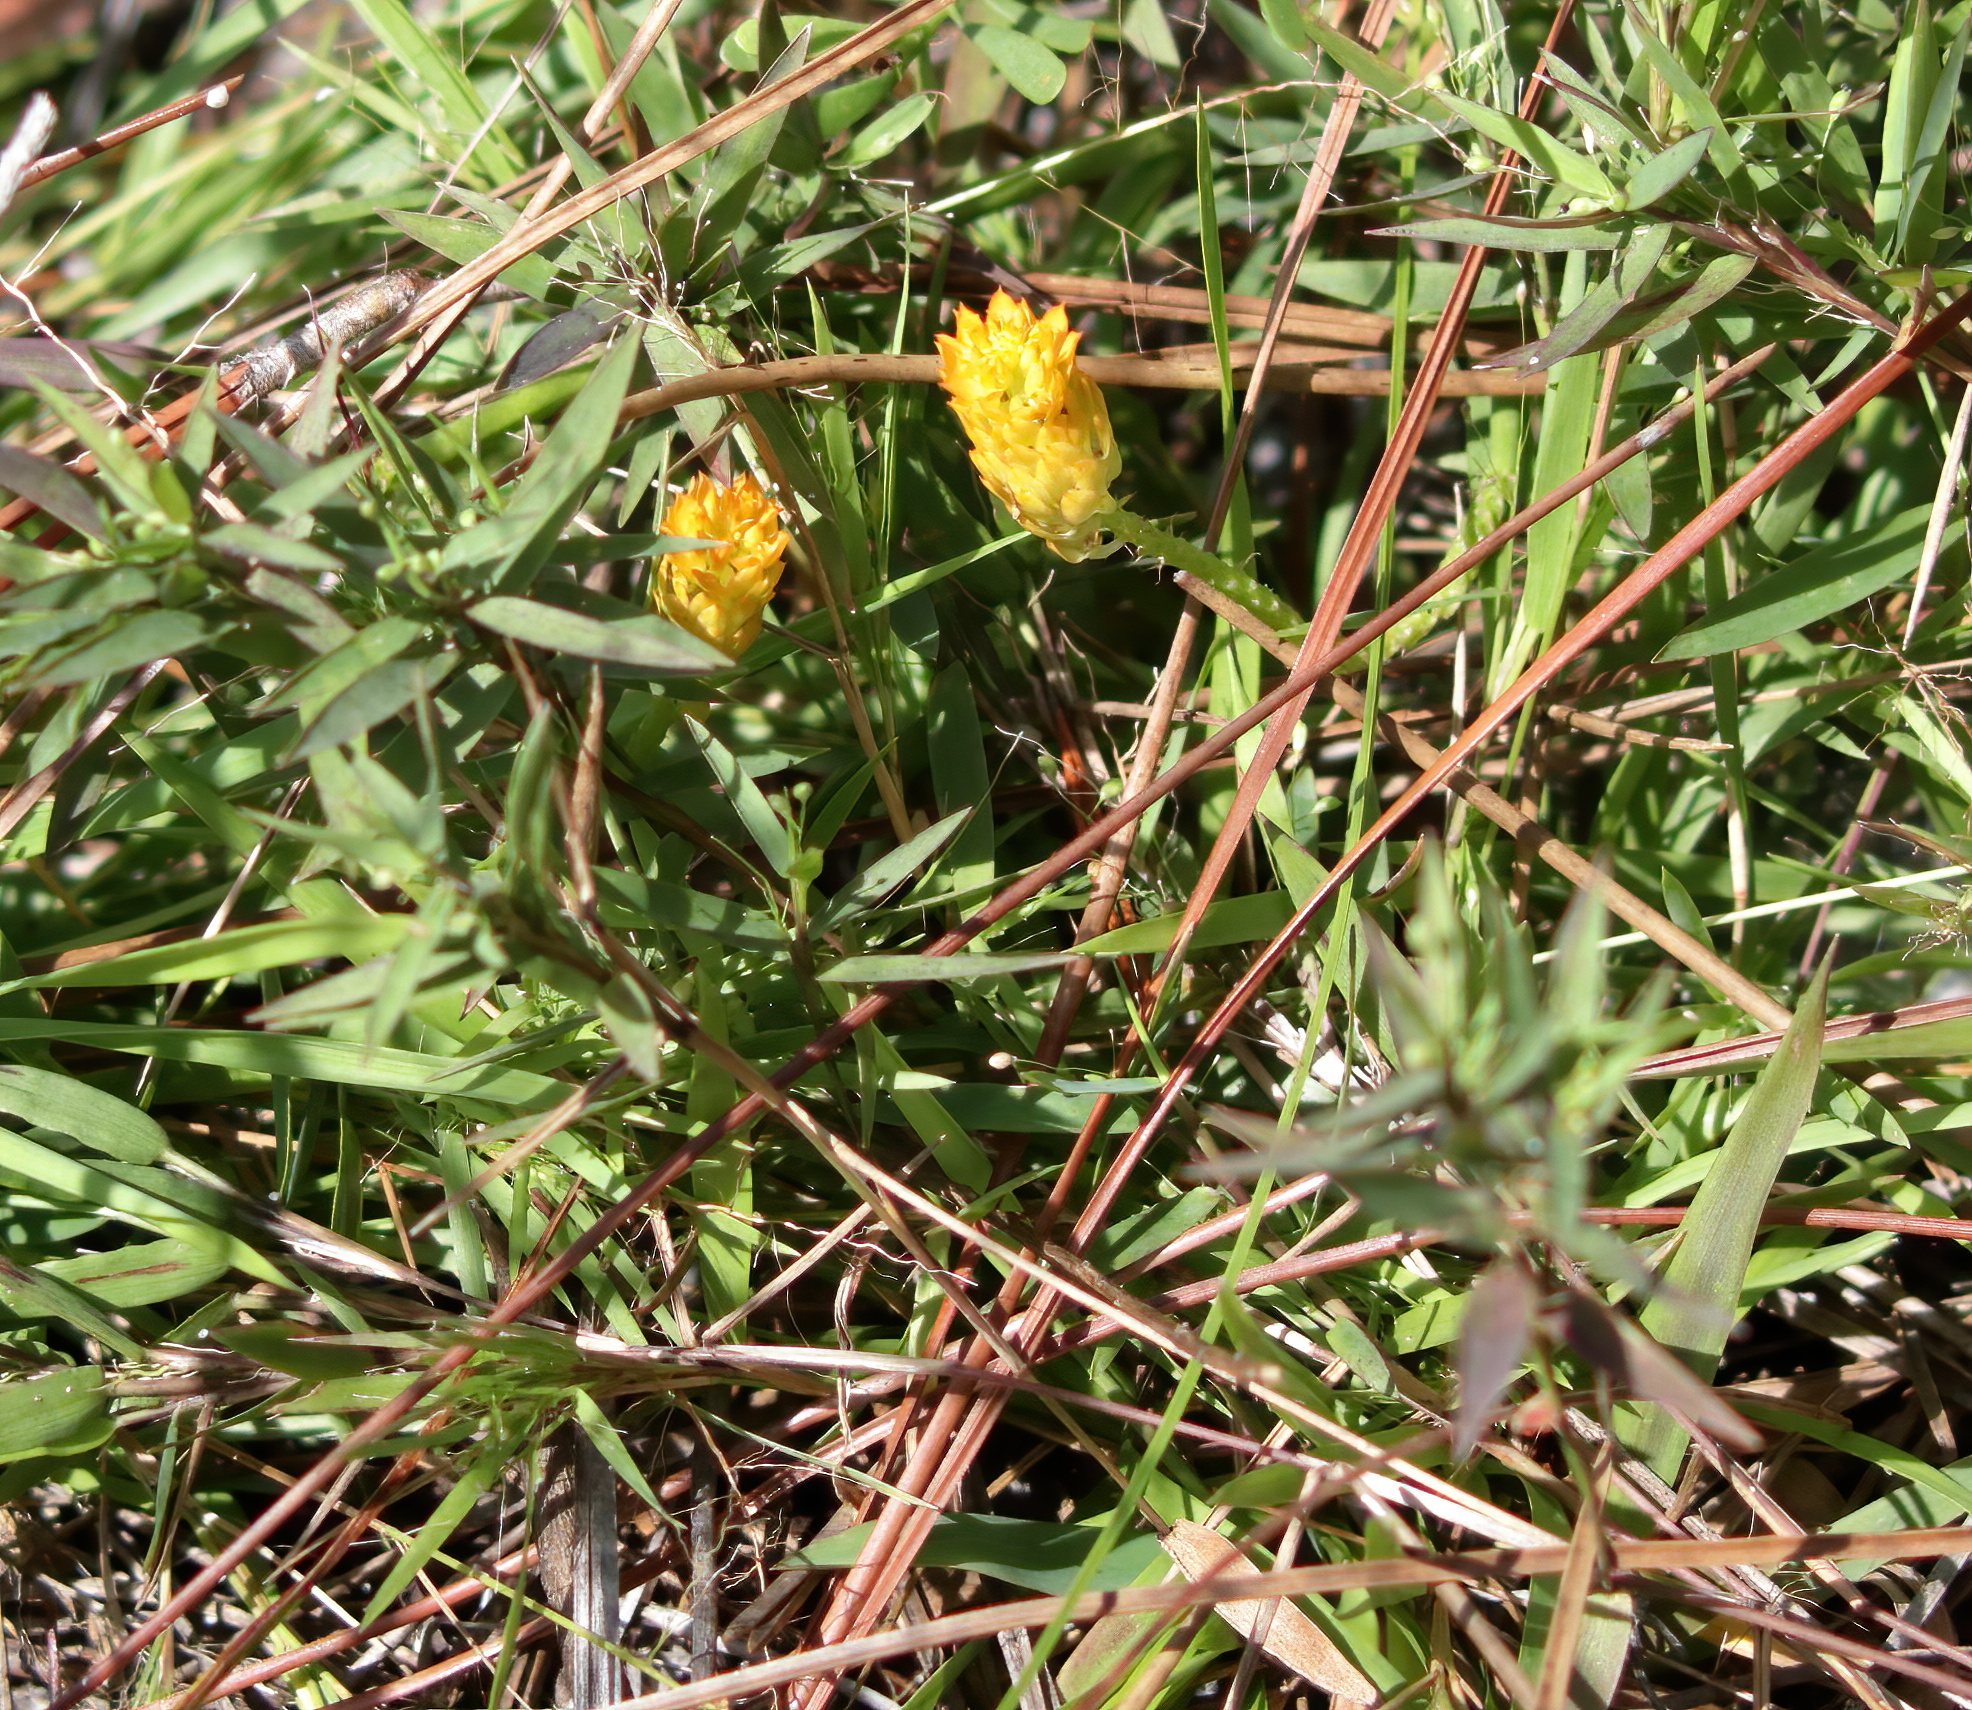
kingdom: Plantae
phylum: Tracheophyta
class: Magnoliopsida
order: Fabales
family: Polygalaceae
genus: Polygala
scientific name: Polygala lutea
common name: Orange milkwort
